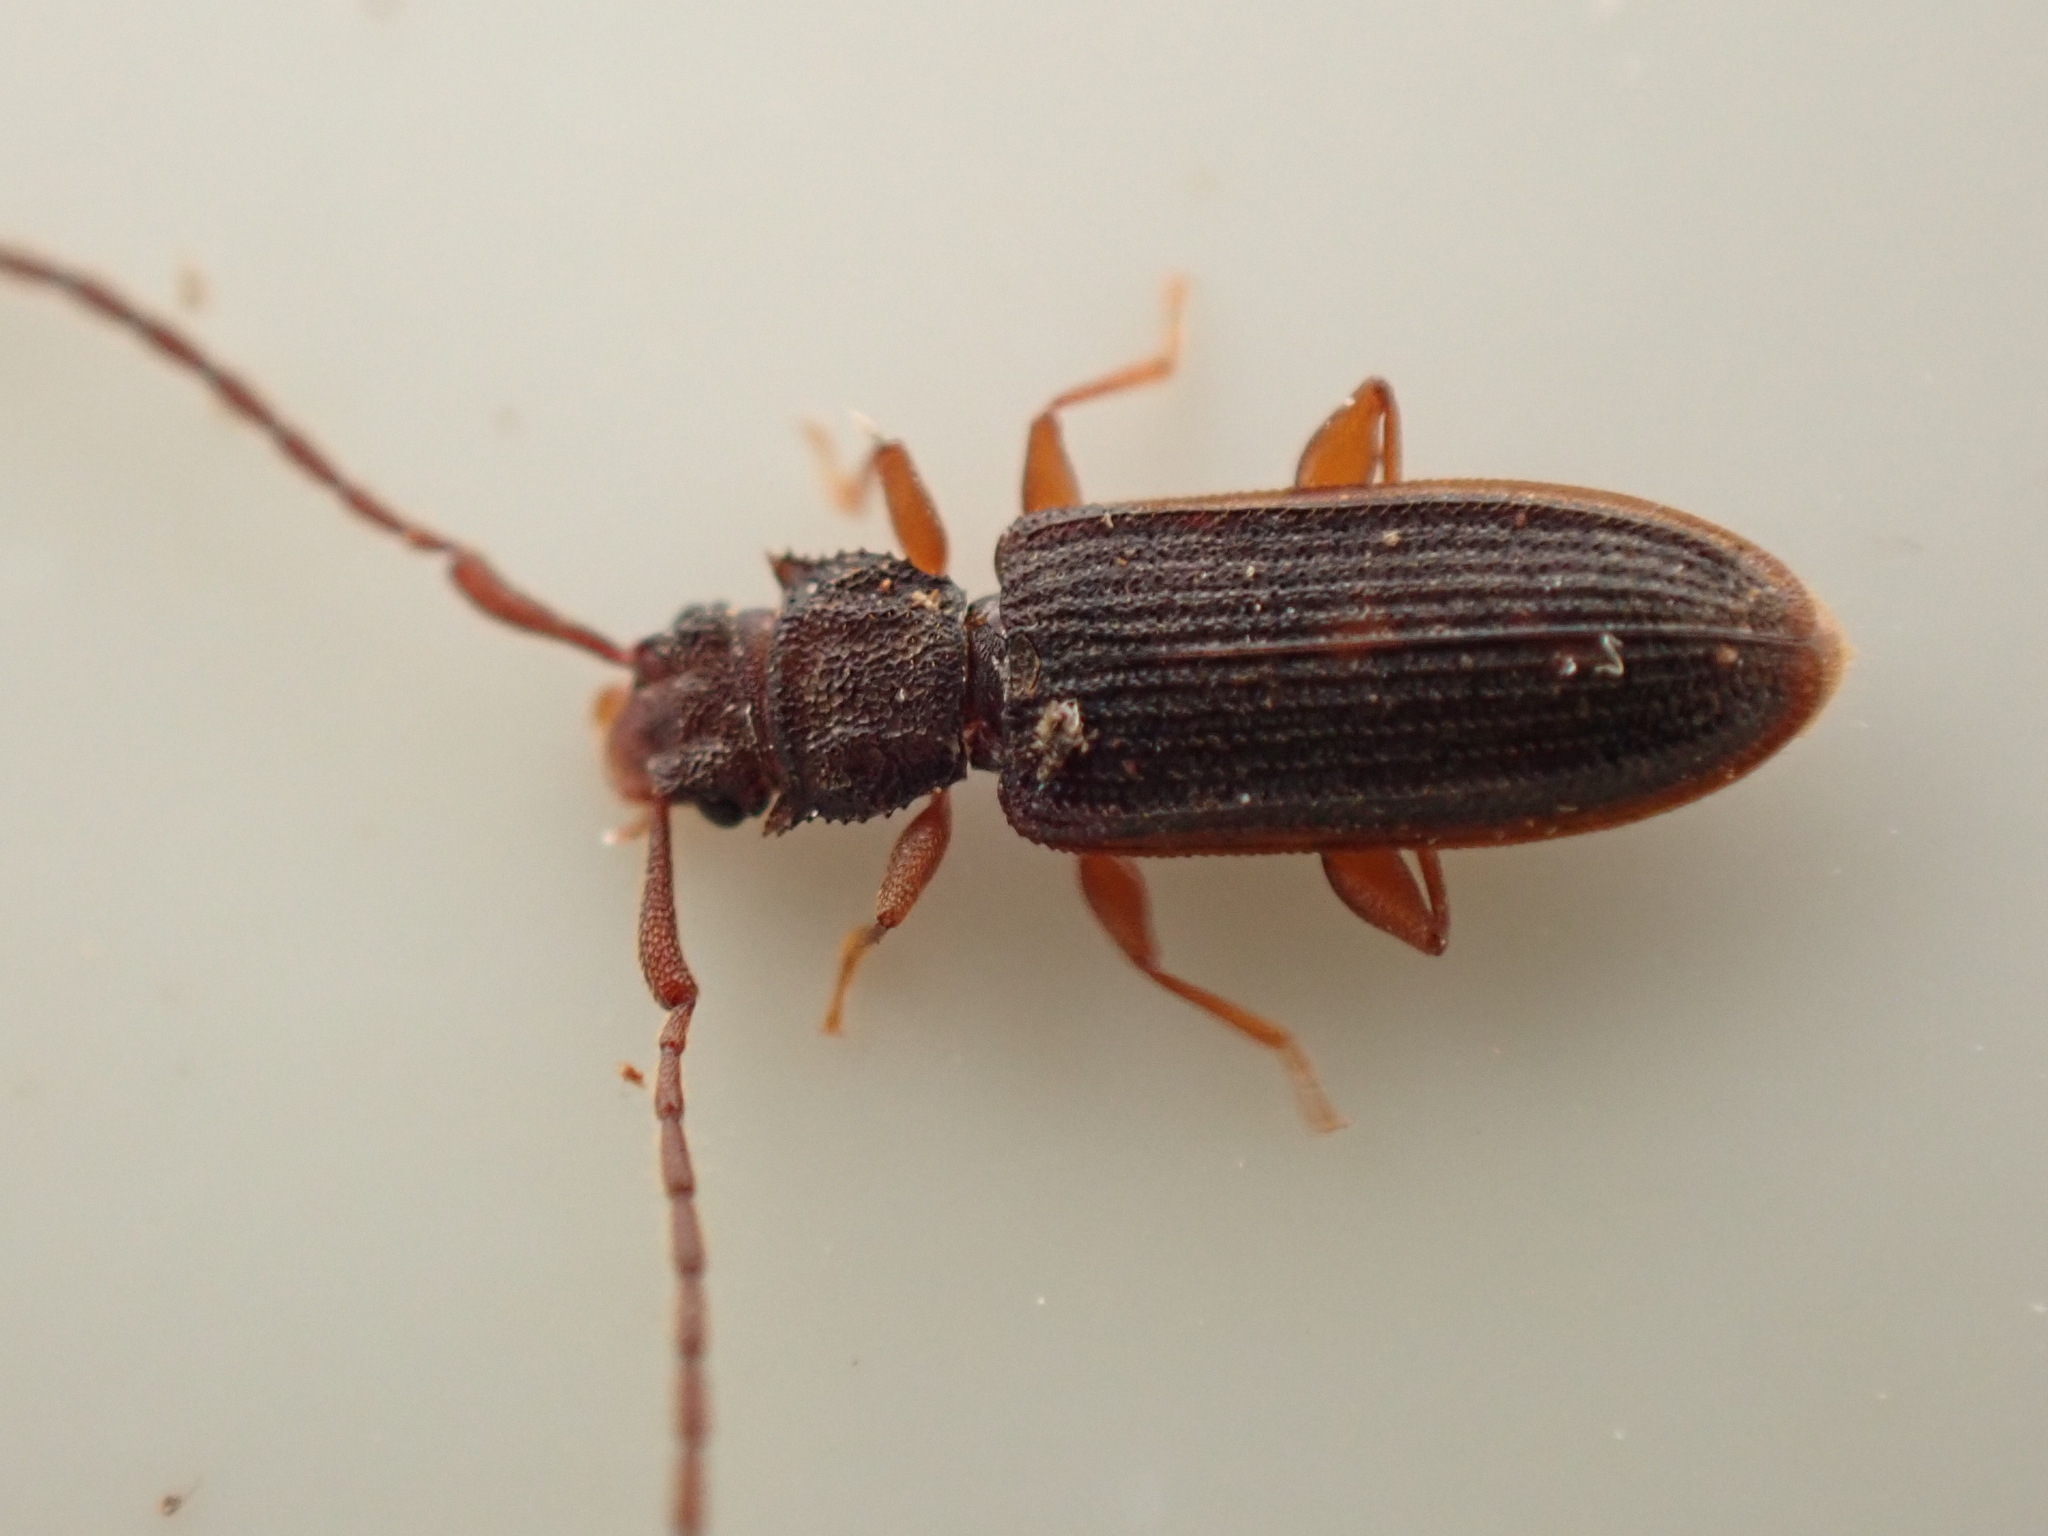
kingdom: Animalia
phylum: Arthropoda
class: Insecta
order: Coleoptera
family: Silvanidae
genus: Uleiota
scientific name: Uleiota planatus
